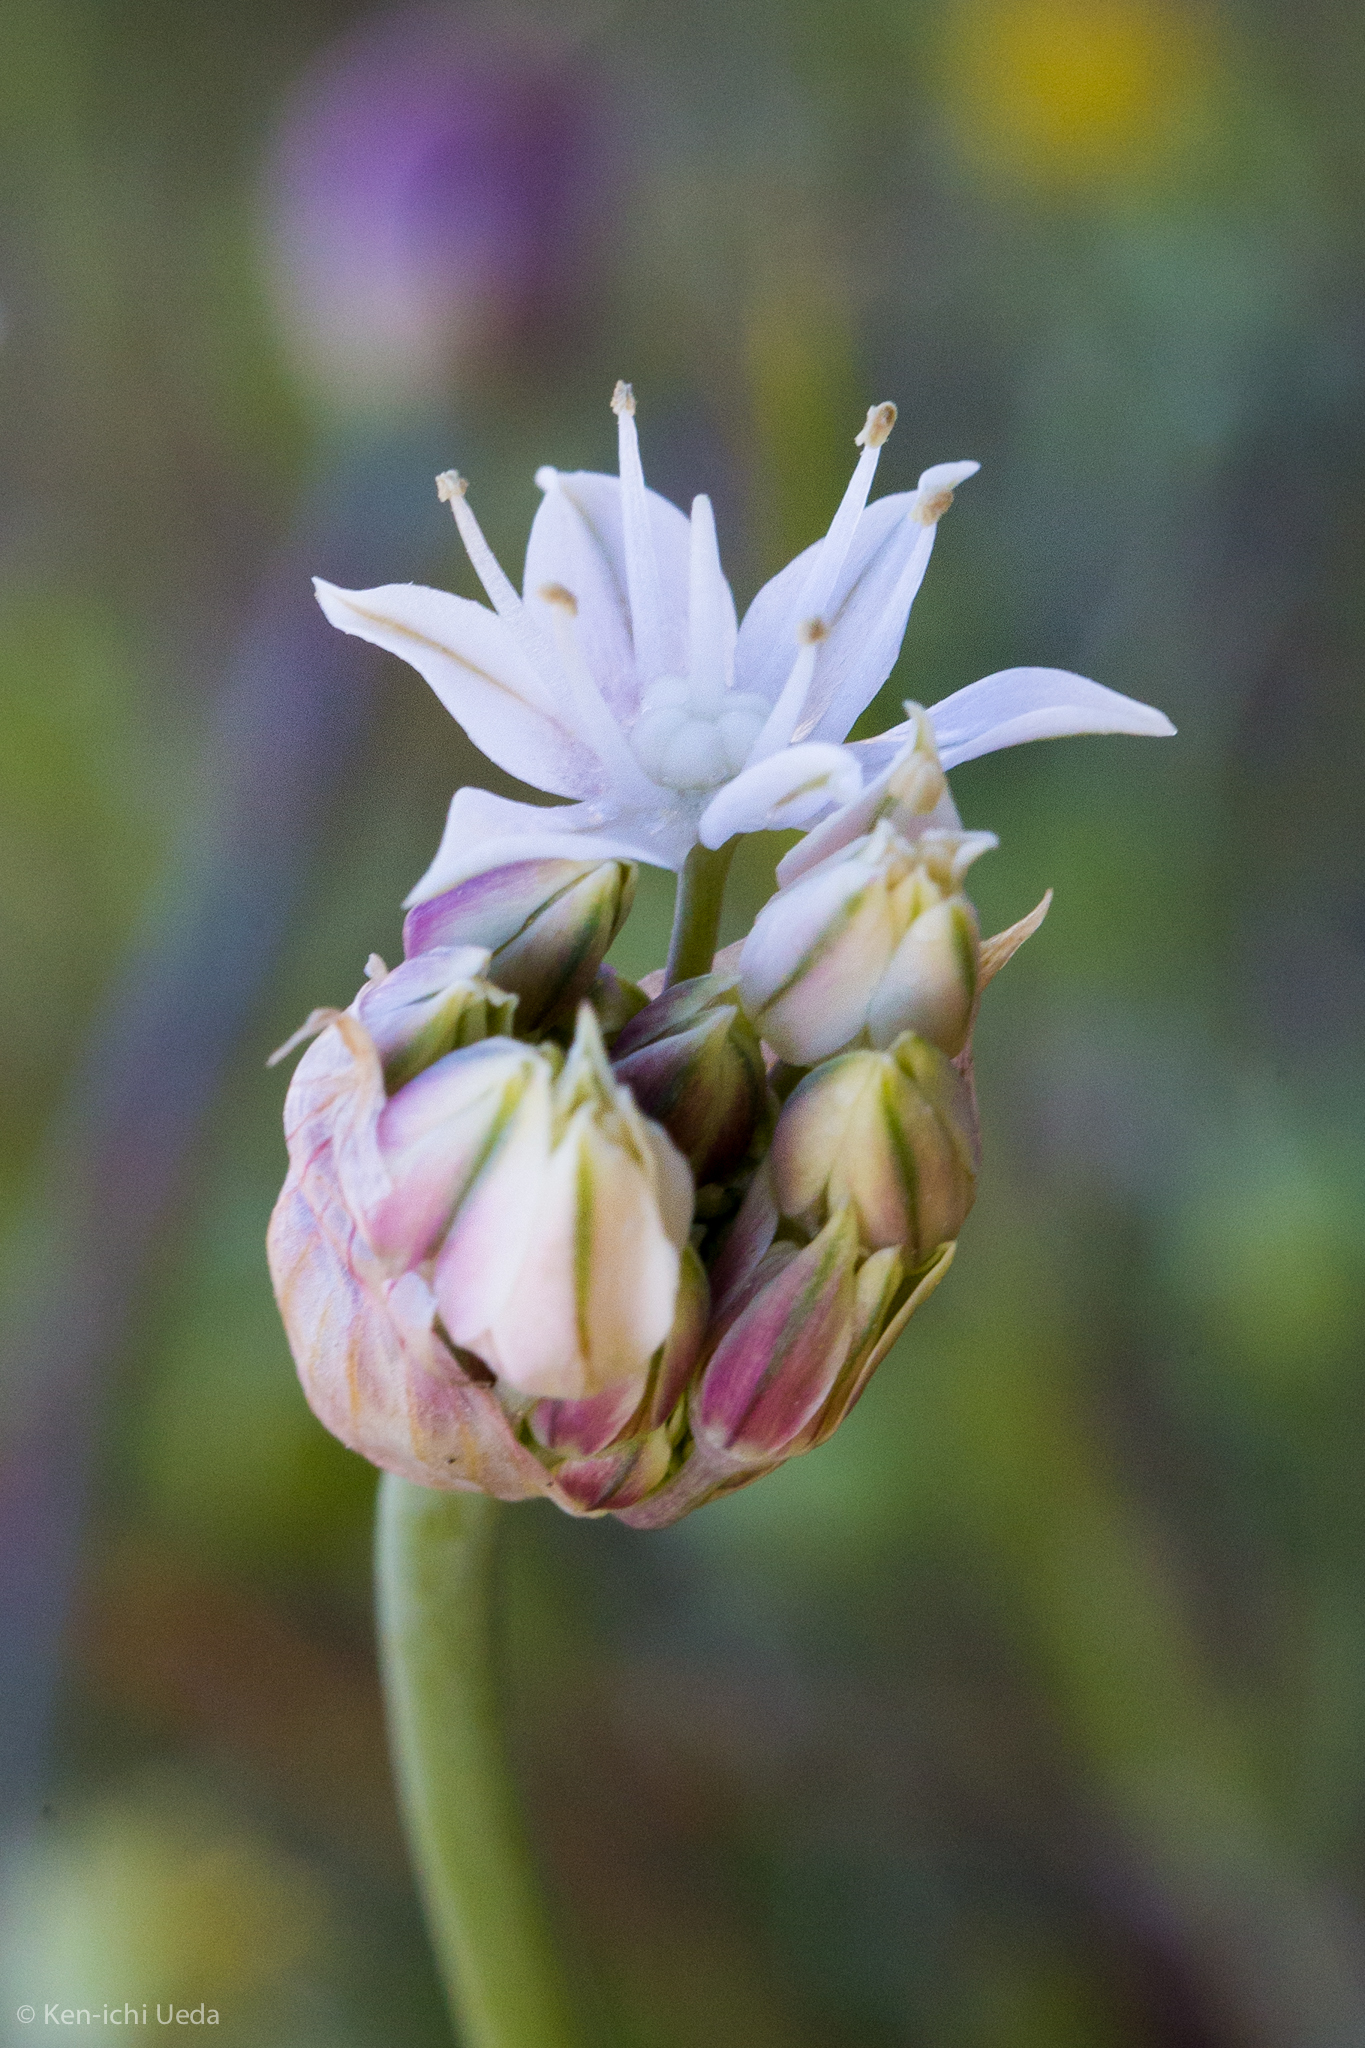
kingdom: Plantae
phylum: Tracheophyta
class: Liliopsida
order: Asparagales
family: Amaryllidaceae
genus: Allium
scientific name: Allium lacunosum
